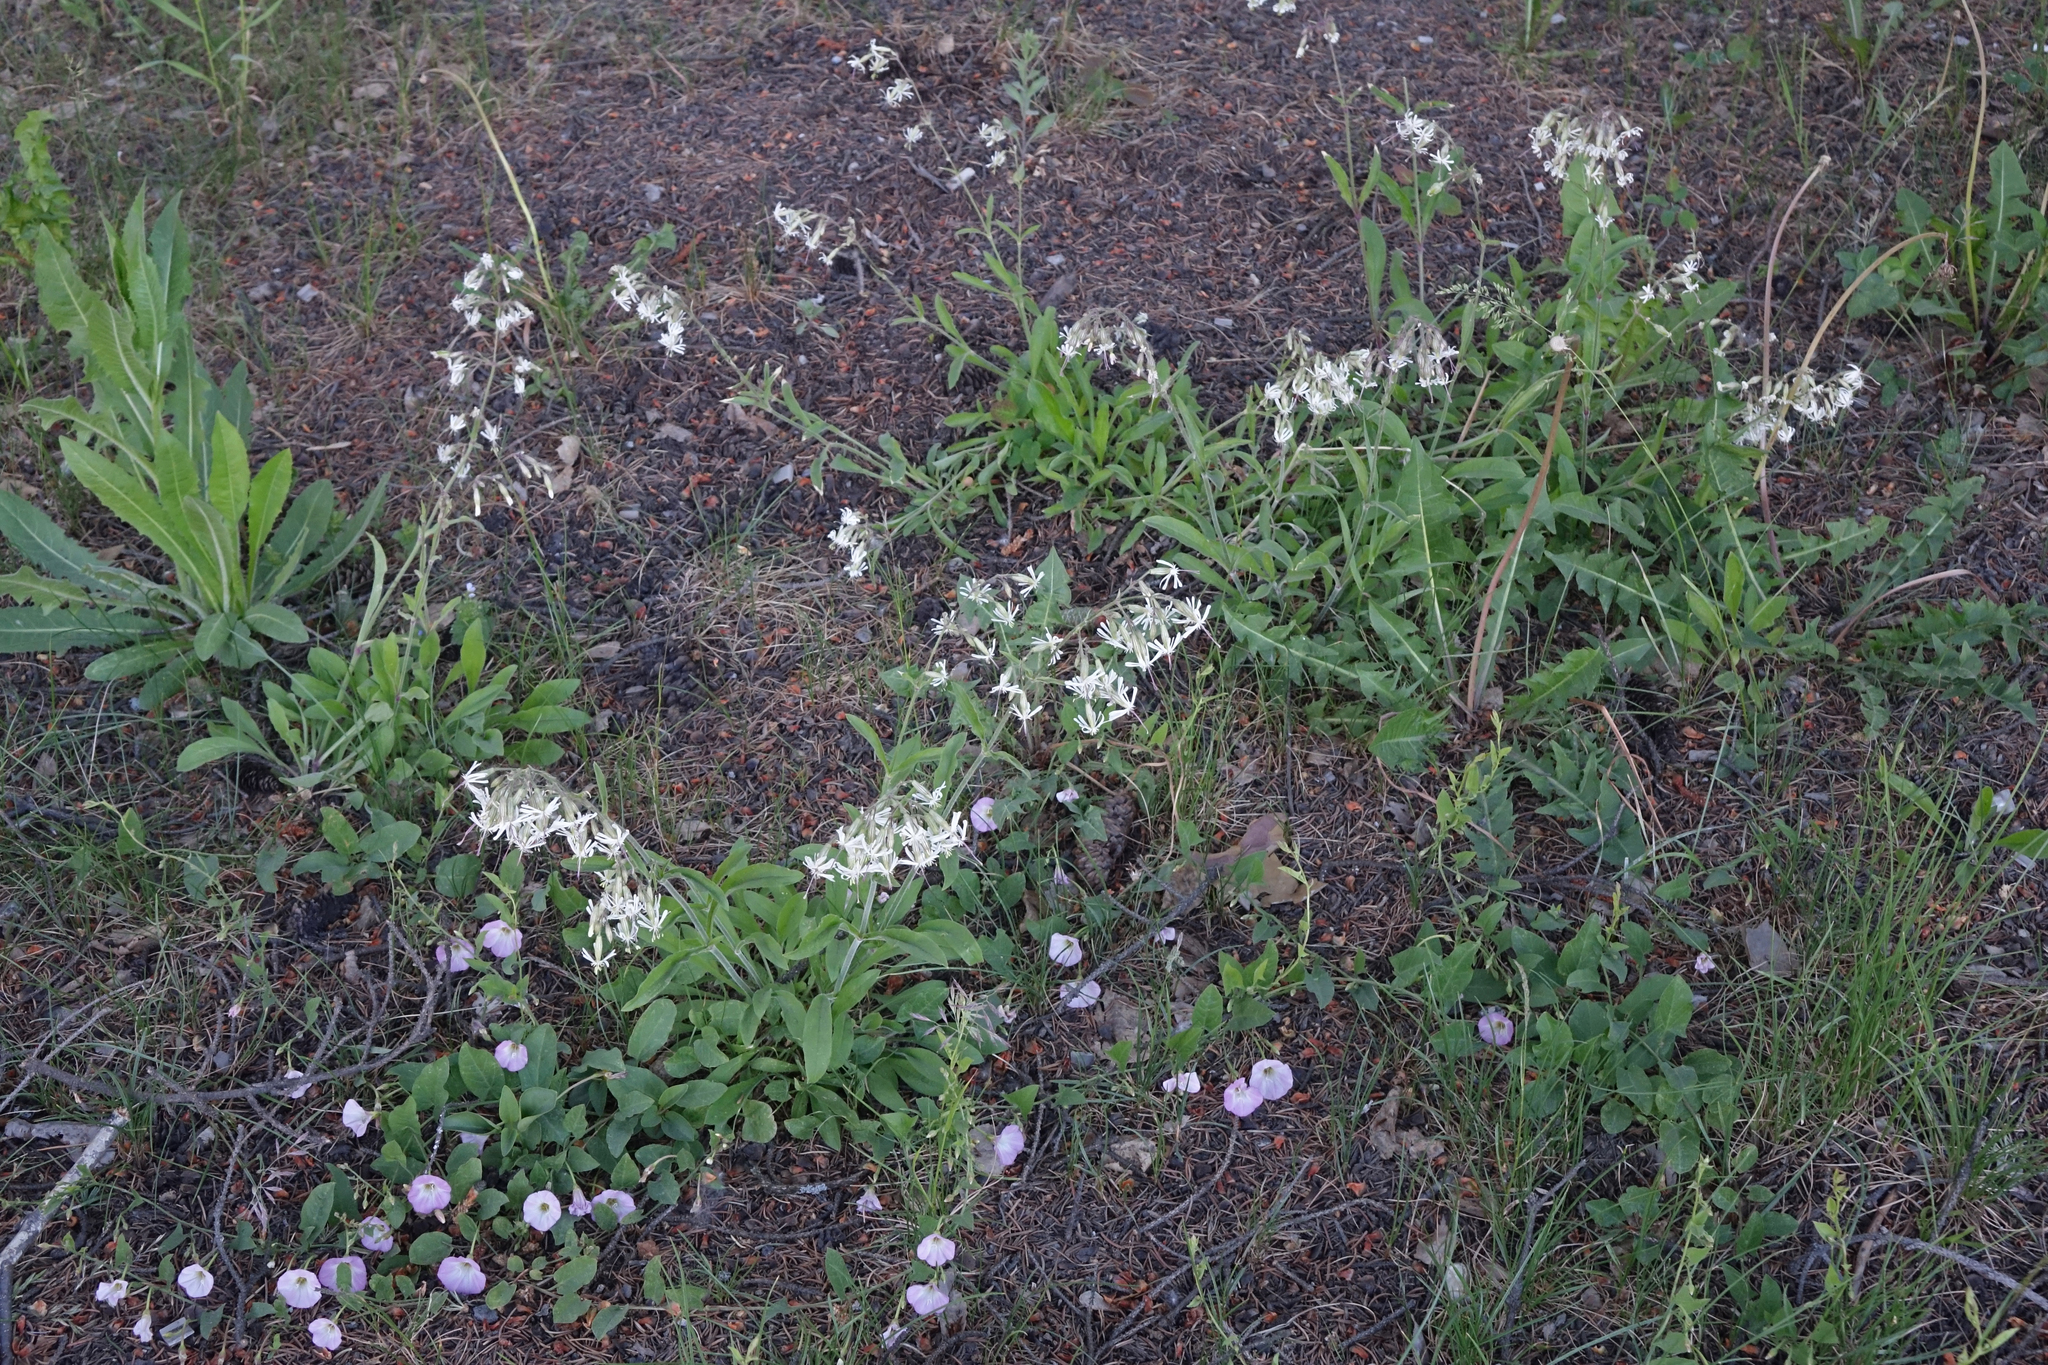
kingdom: Plantae
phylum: Tracheophyta
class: Magnoliopsida
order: Caryophyllales
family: Caryophyllaceae
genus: Silene
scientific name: Silene nutans
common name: Nottingham catchfly
